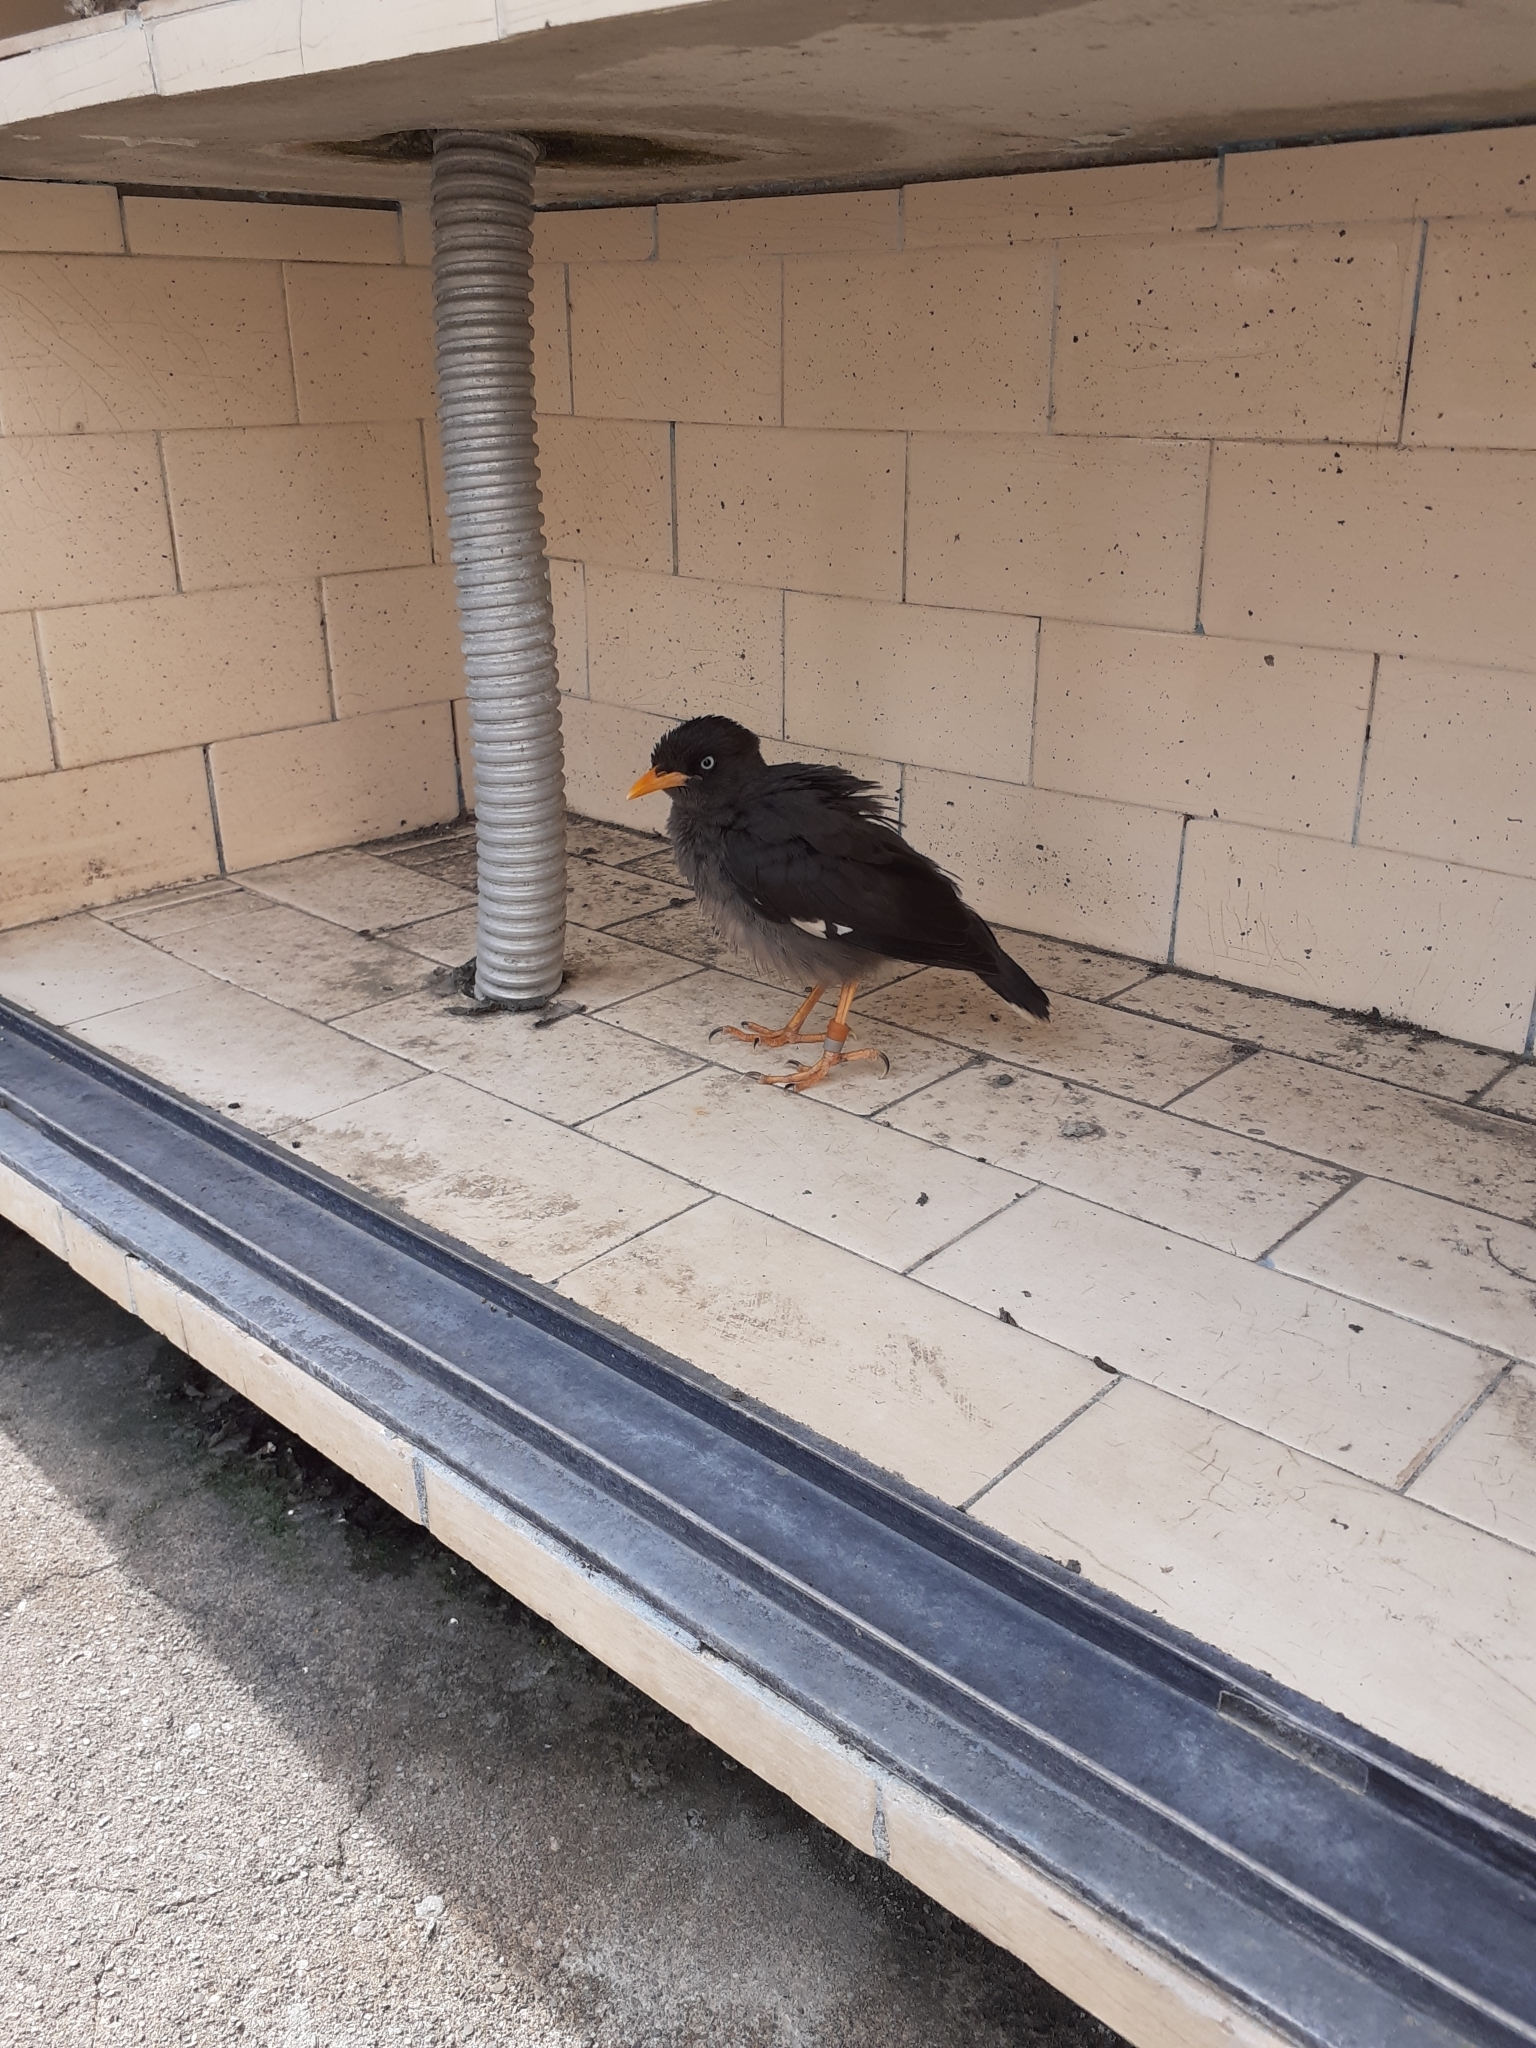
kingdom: Animalia
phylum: Chordata
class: Aves
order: Passeriformes
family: Sturnidae
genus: Acridotheres
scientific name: Acridotheres javanicus
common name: Javan myna
